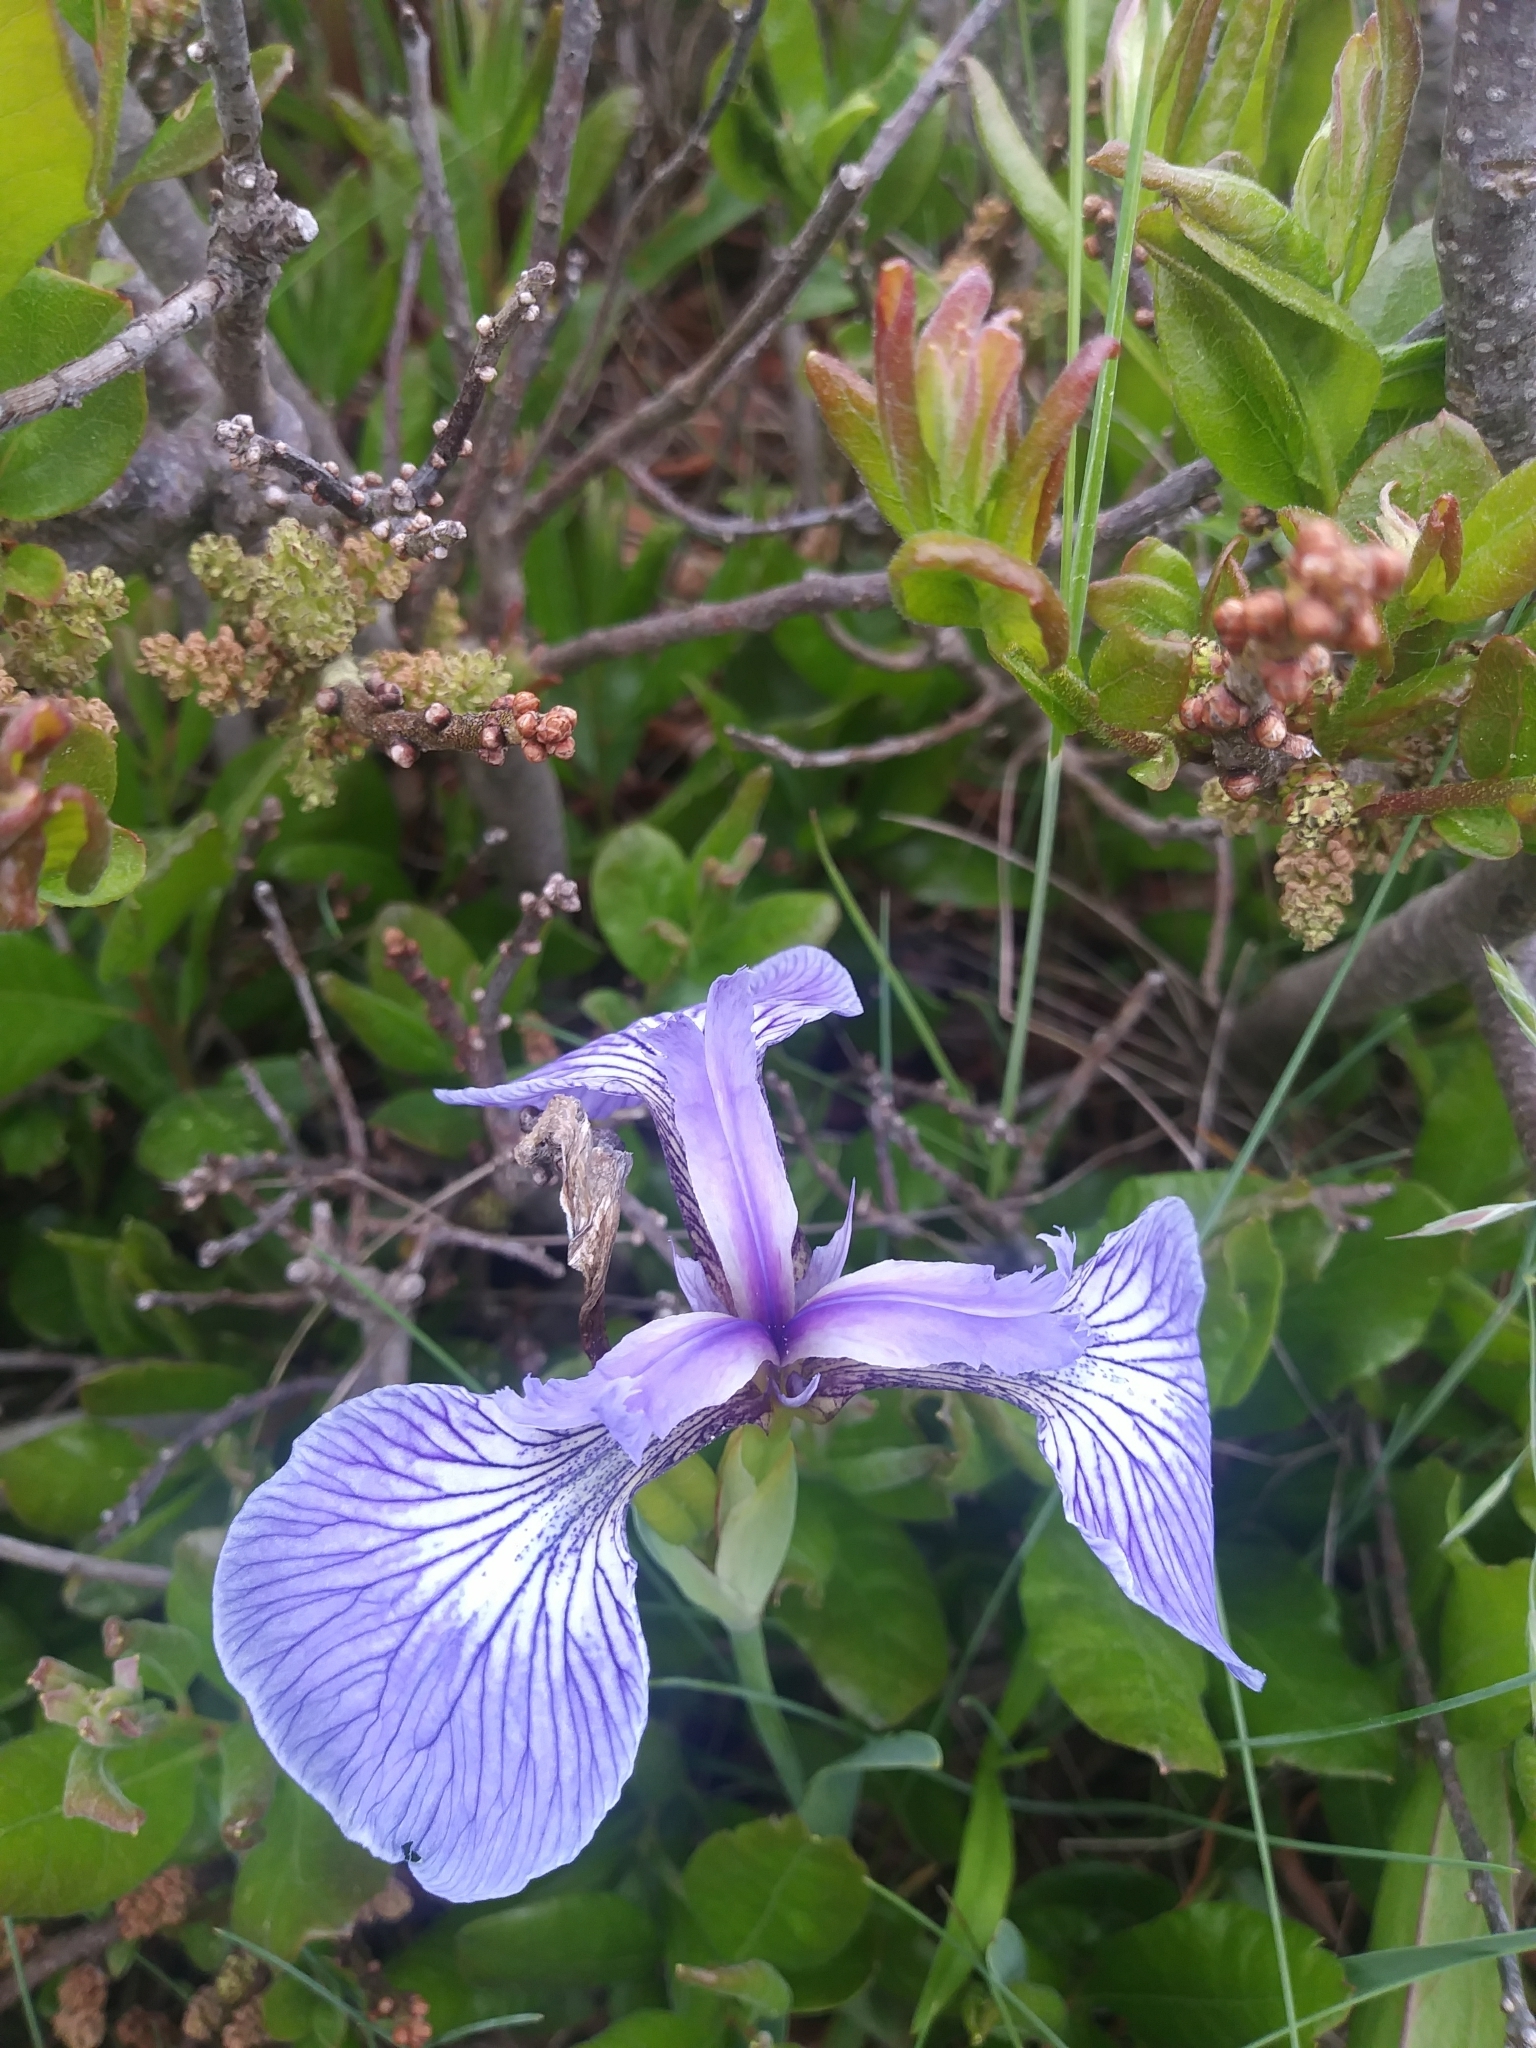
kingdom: Plantae
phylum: Tracheophyta
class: Liliopsida
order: Asparagales
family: Iridaceae
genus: Iris
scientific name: Iris hookeri
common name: Canada beach-head iris
